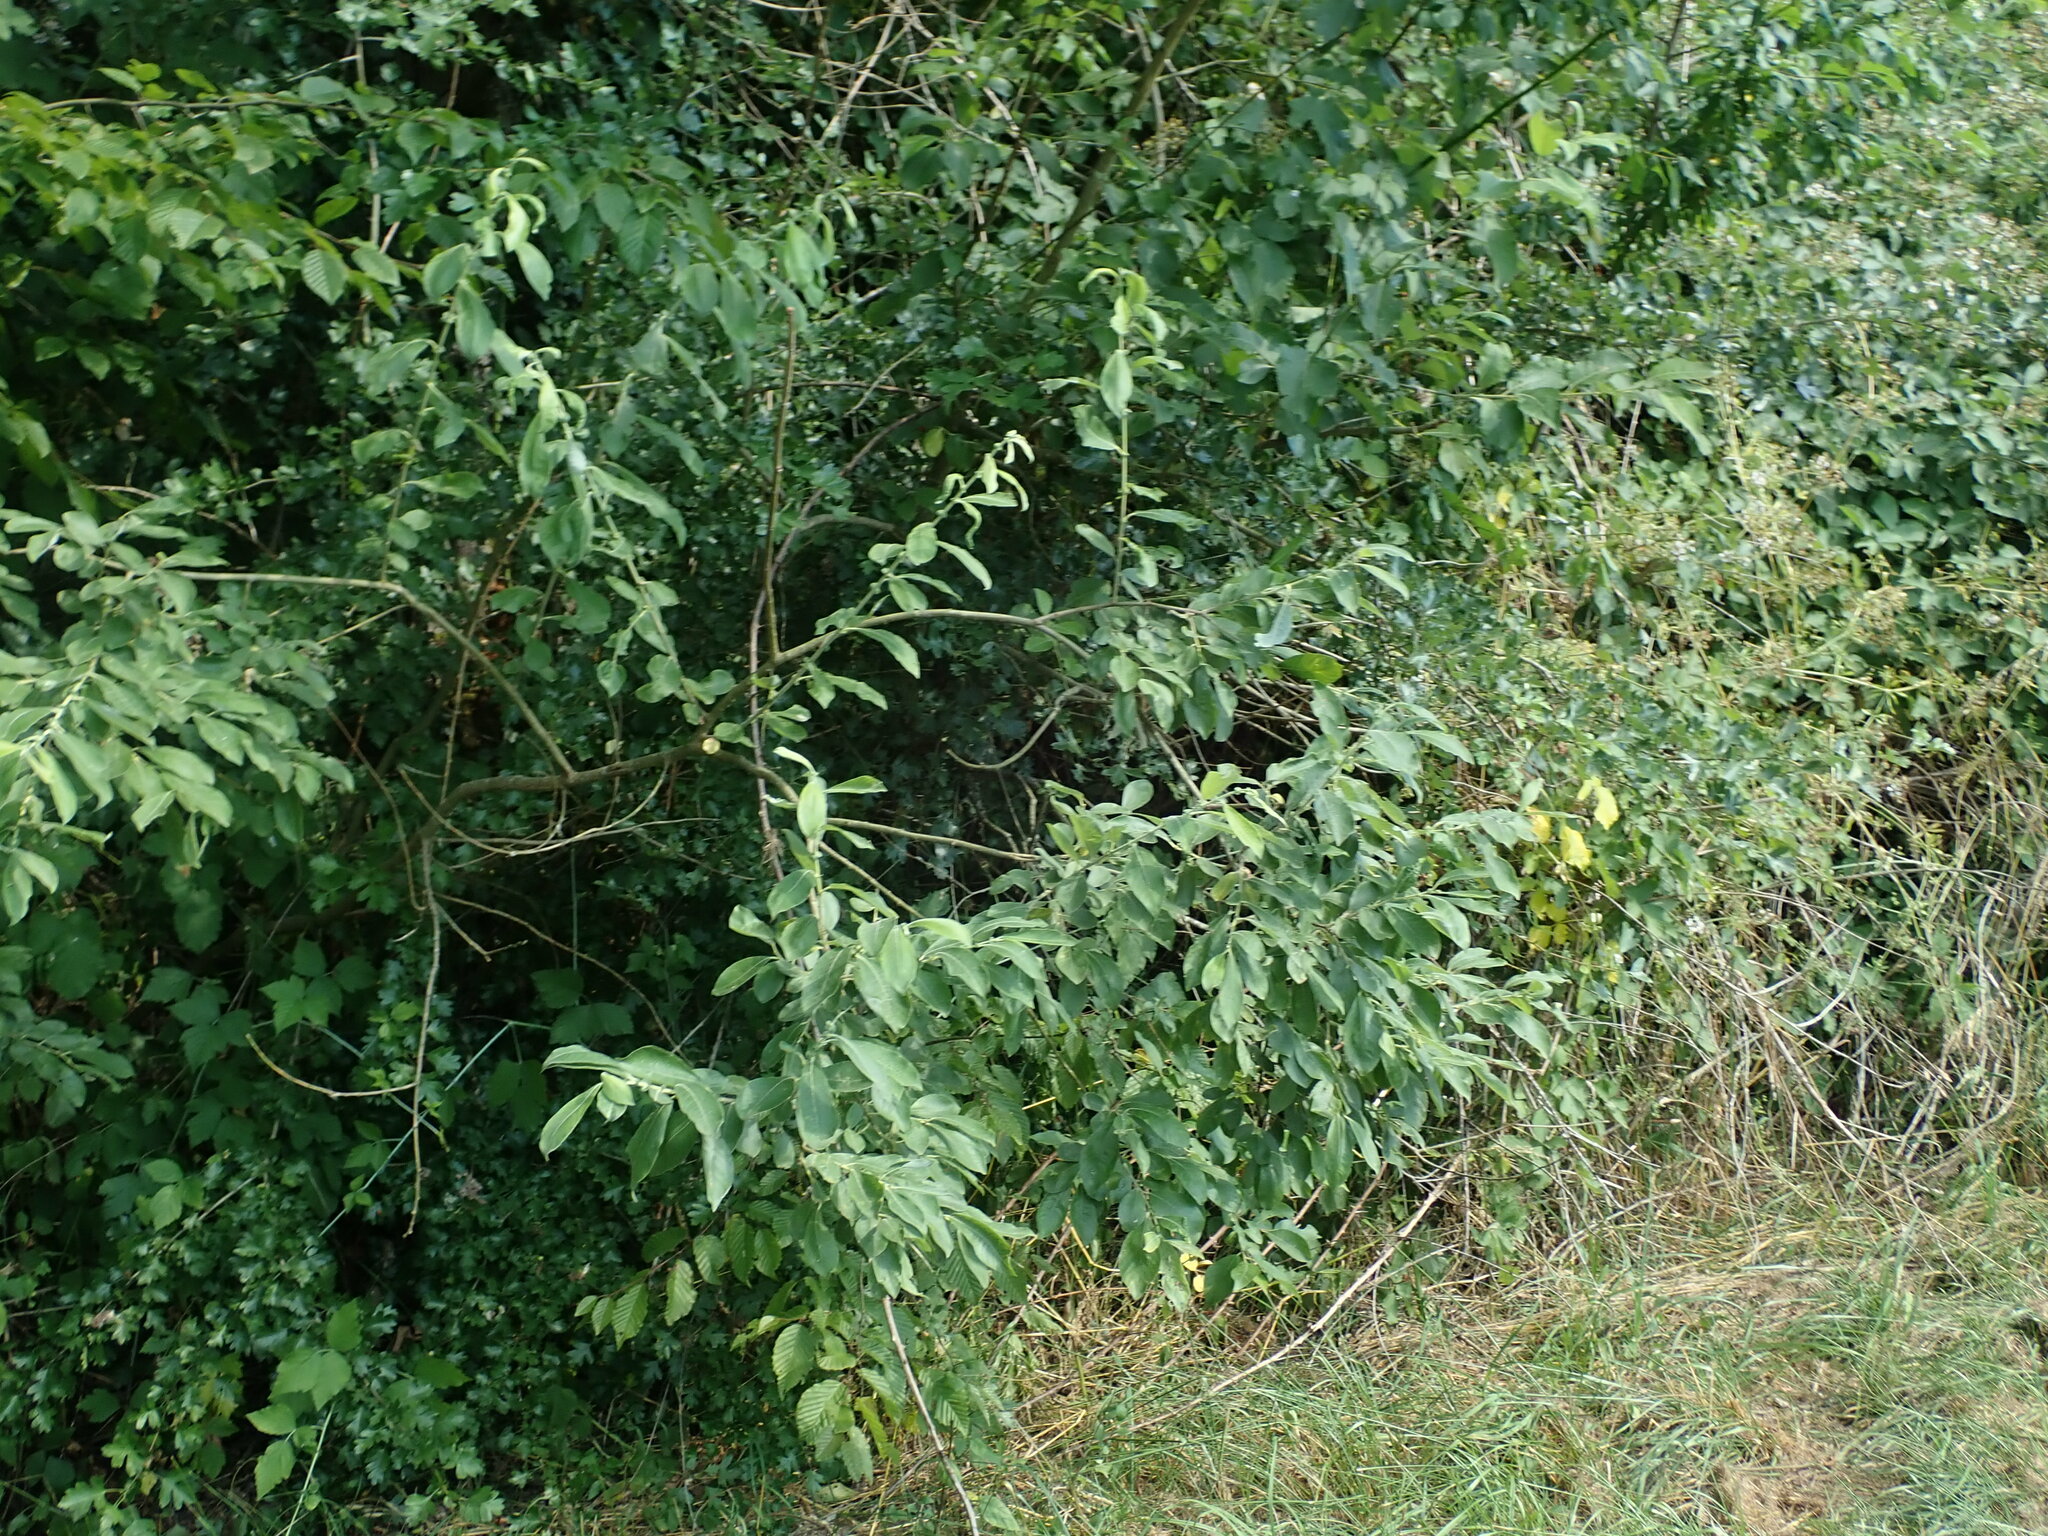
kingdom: Plantae
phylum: Tracheophyta
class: Magnoliopsida
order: Malpighiales
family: Salicaceae
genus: Salix
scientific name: Salix cinerea
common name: Common sallow
